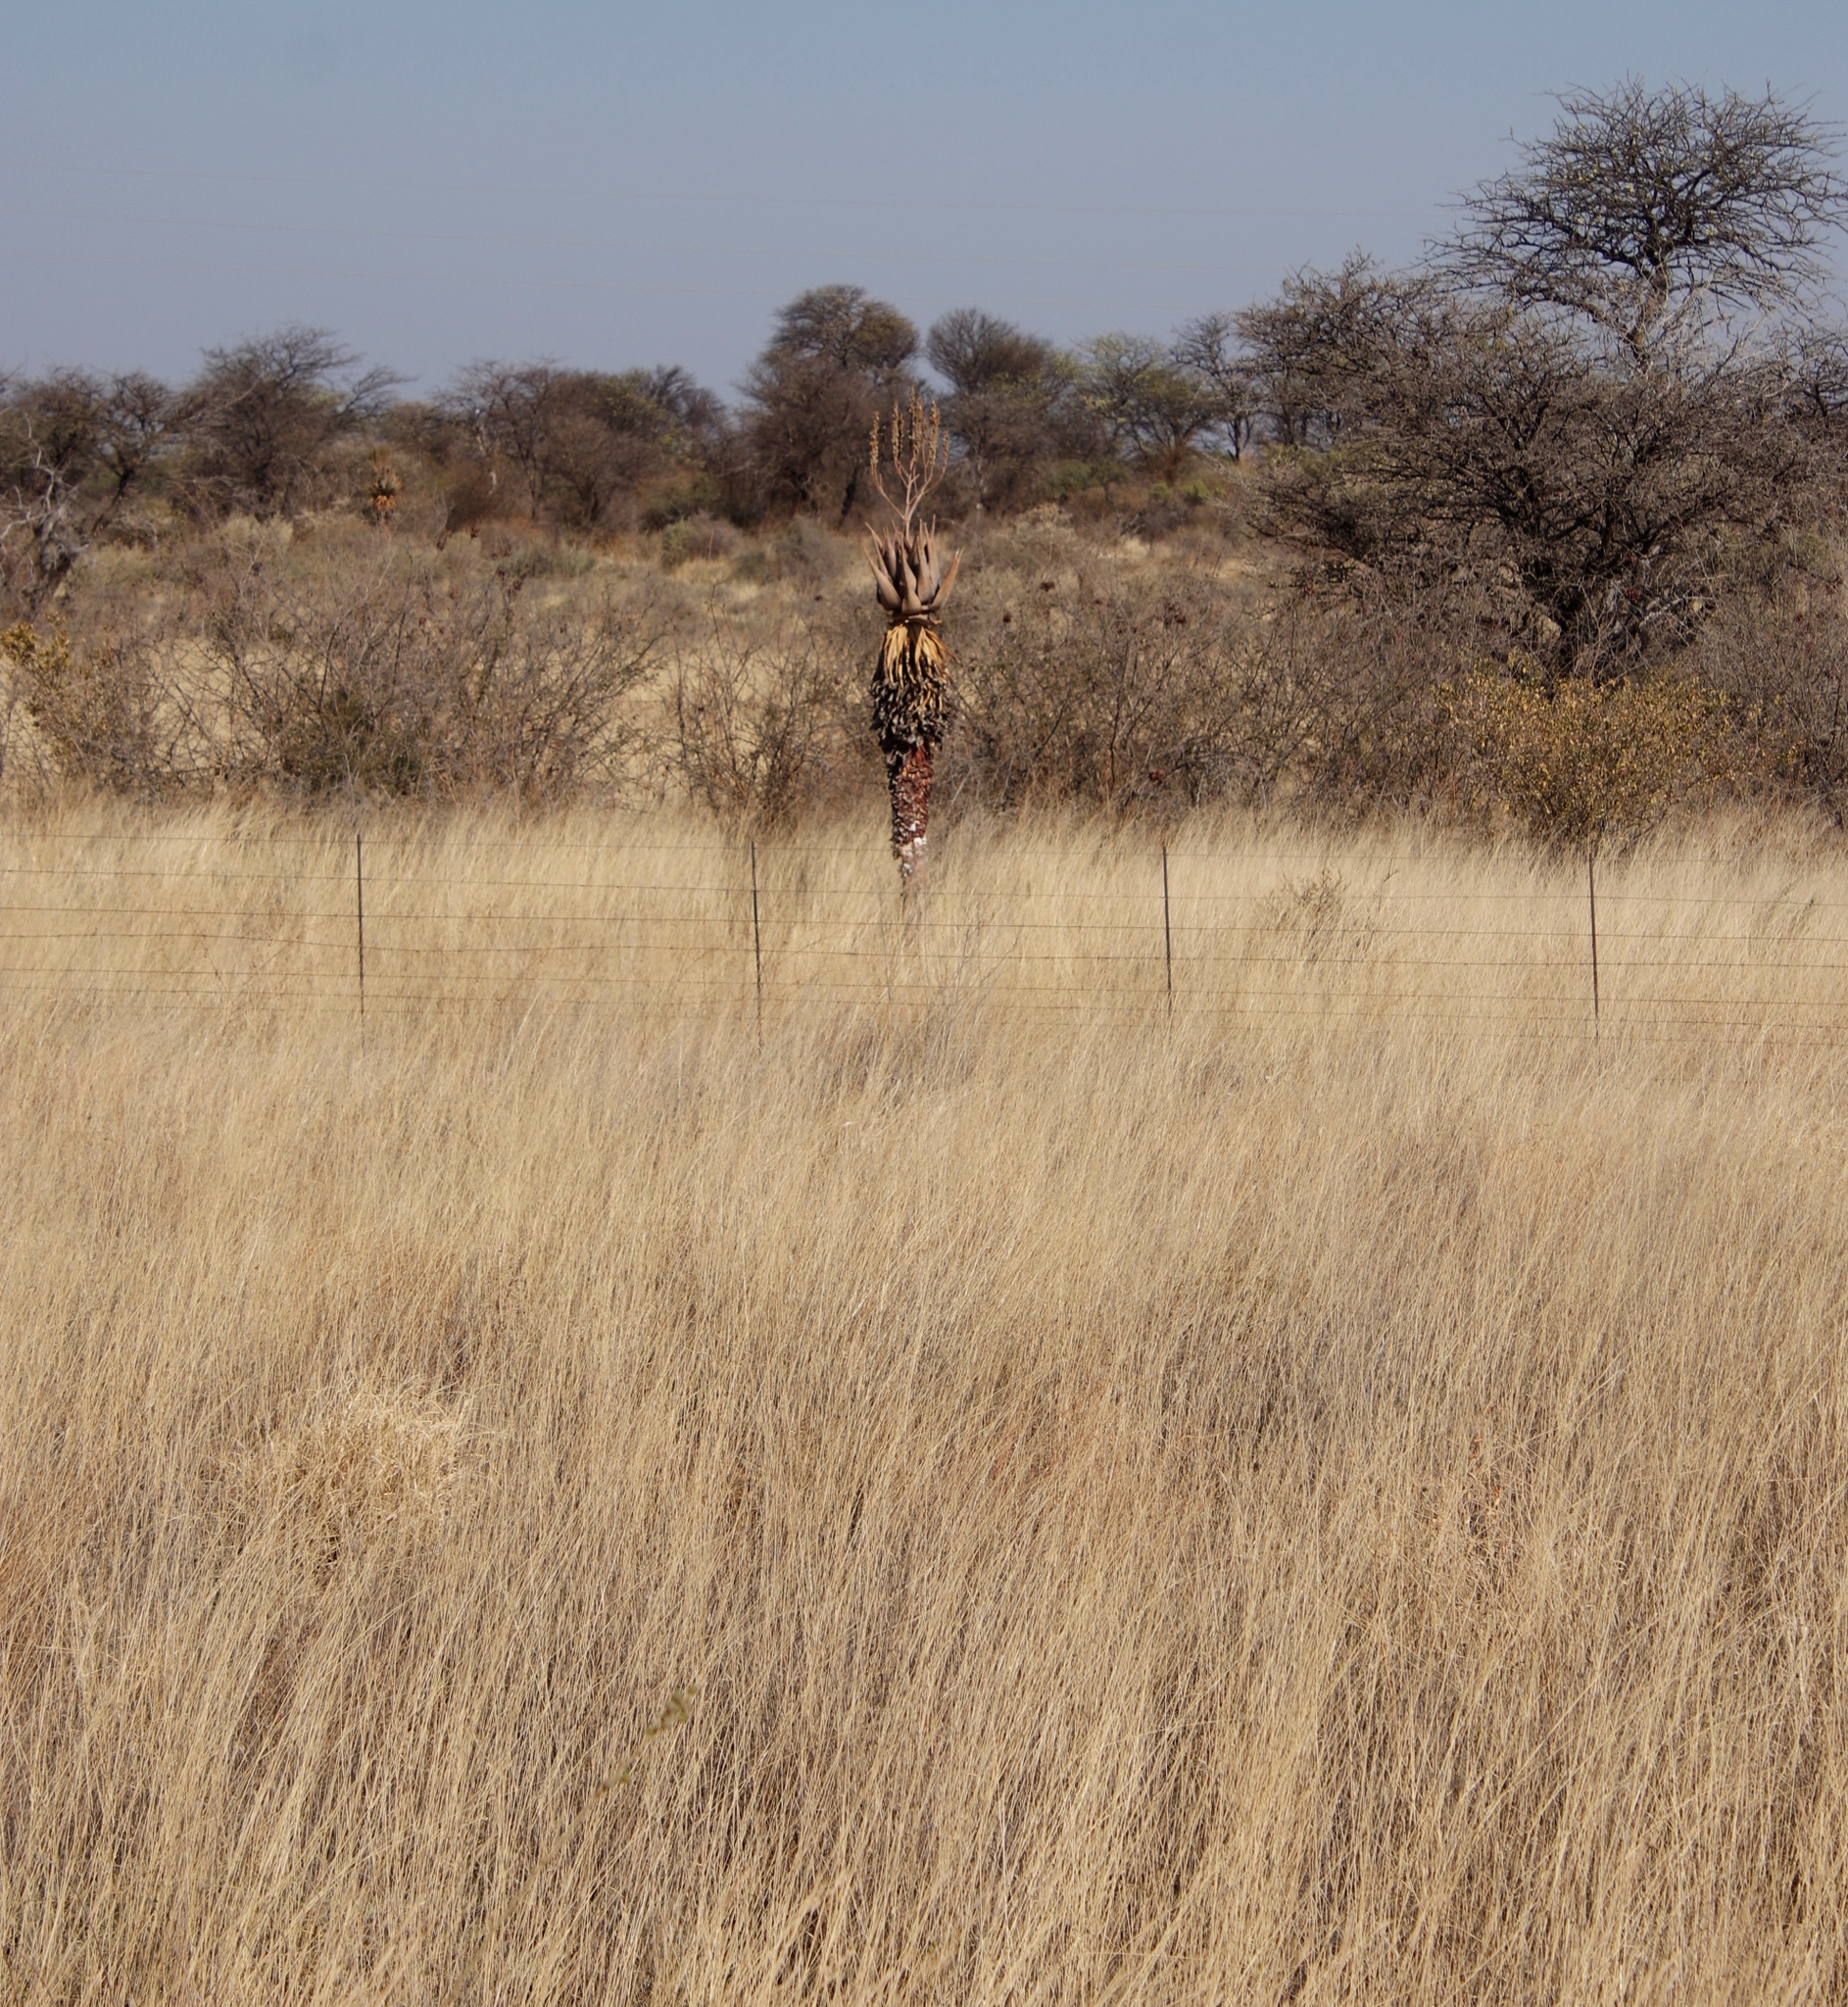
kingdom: Plantae
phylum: Tracheophyta
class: Liliopsida
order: Asparagales
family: Asphodelaceae
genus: Aloe
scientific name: Aloe littoralis
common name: Luanda tree aloe
